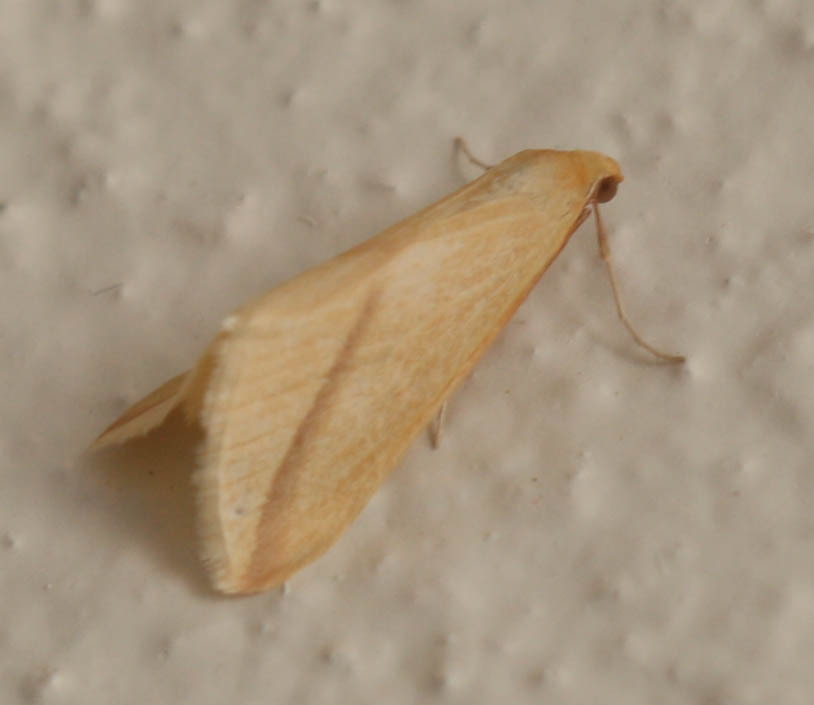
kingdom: Animalia
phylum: Arthropoda
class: Insecta
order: Lepidoptera
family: Geometridae
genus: Rhodometra
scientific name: Rhodometra sacraria
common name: Vestal
